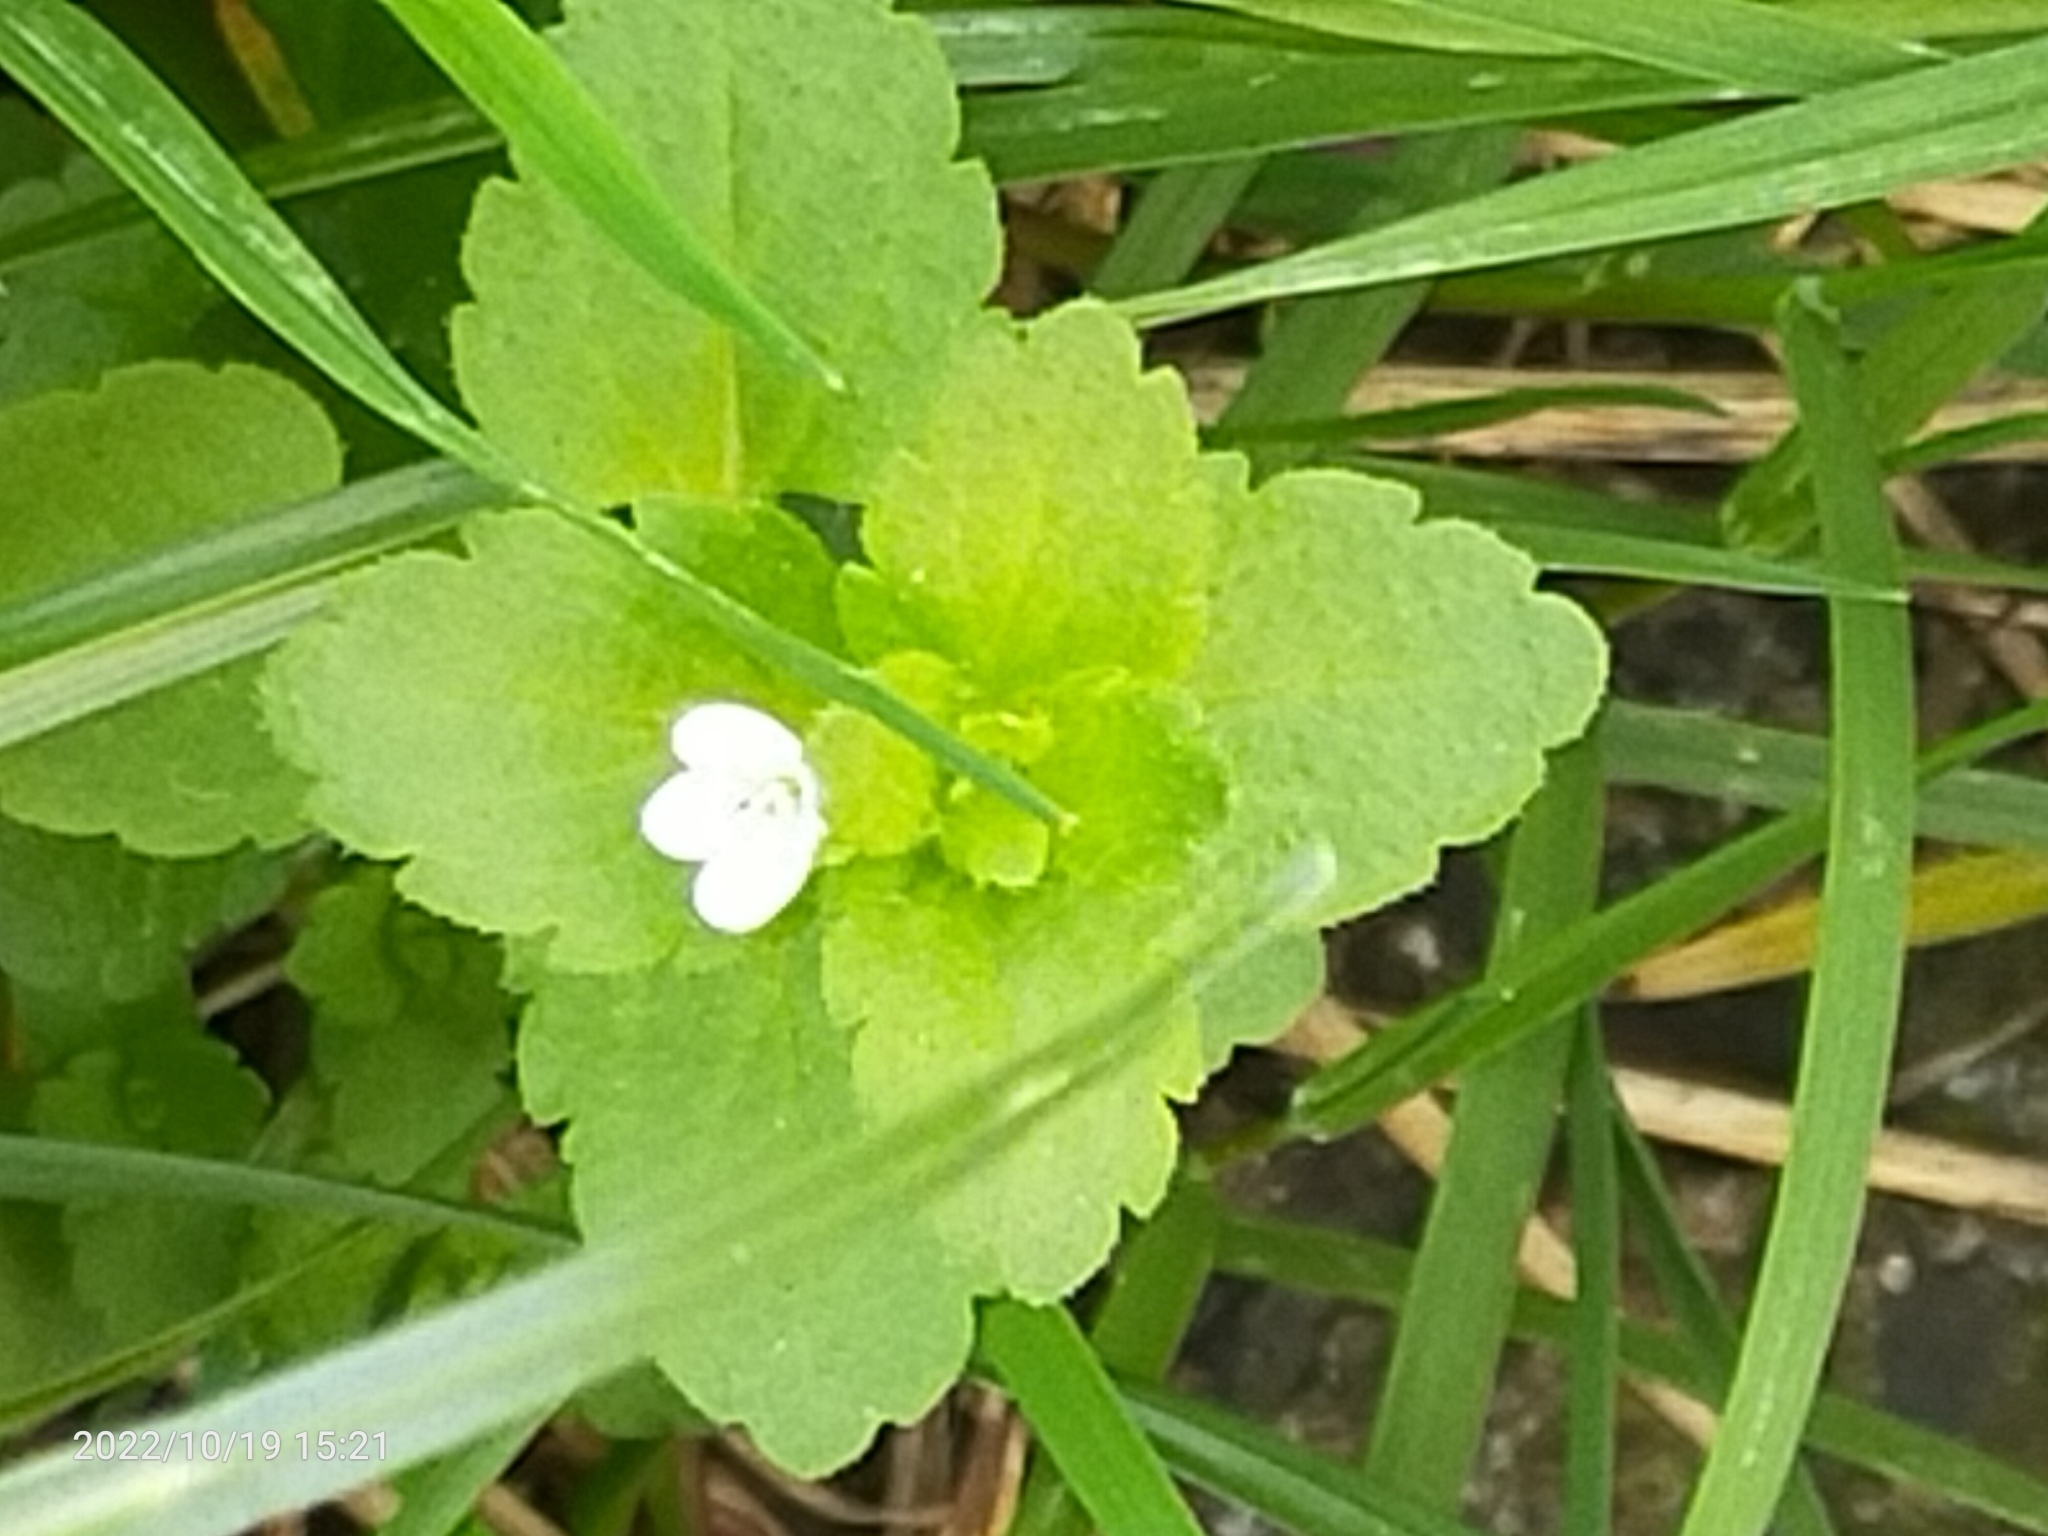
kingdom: Plantae
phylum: Tracheophyta
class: Magnoliopsida
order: Lamiales
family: Plantaginaceae
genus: Veronica
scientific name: Veronica persica
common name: Common field-speedwell
